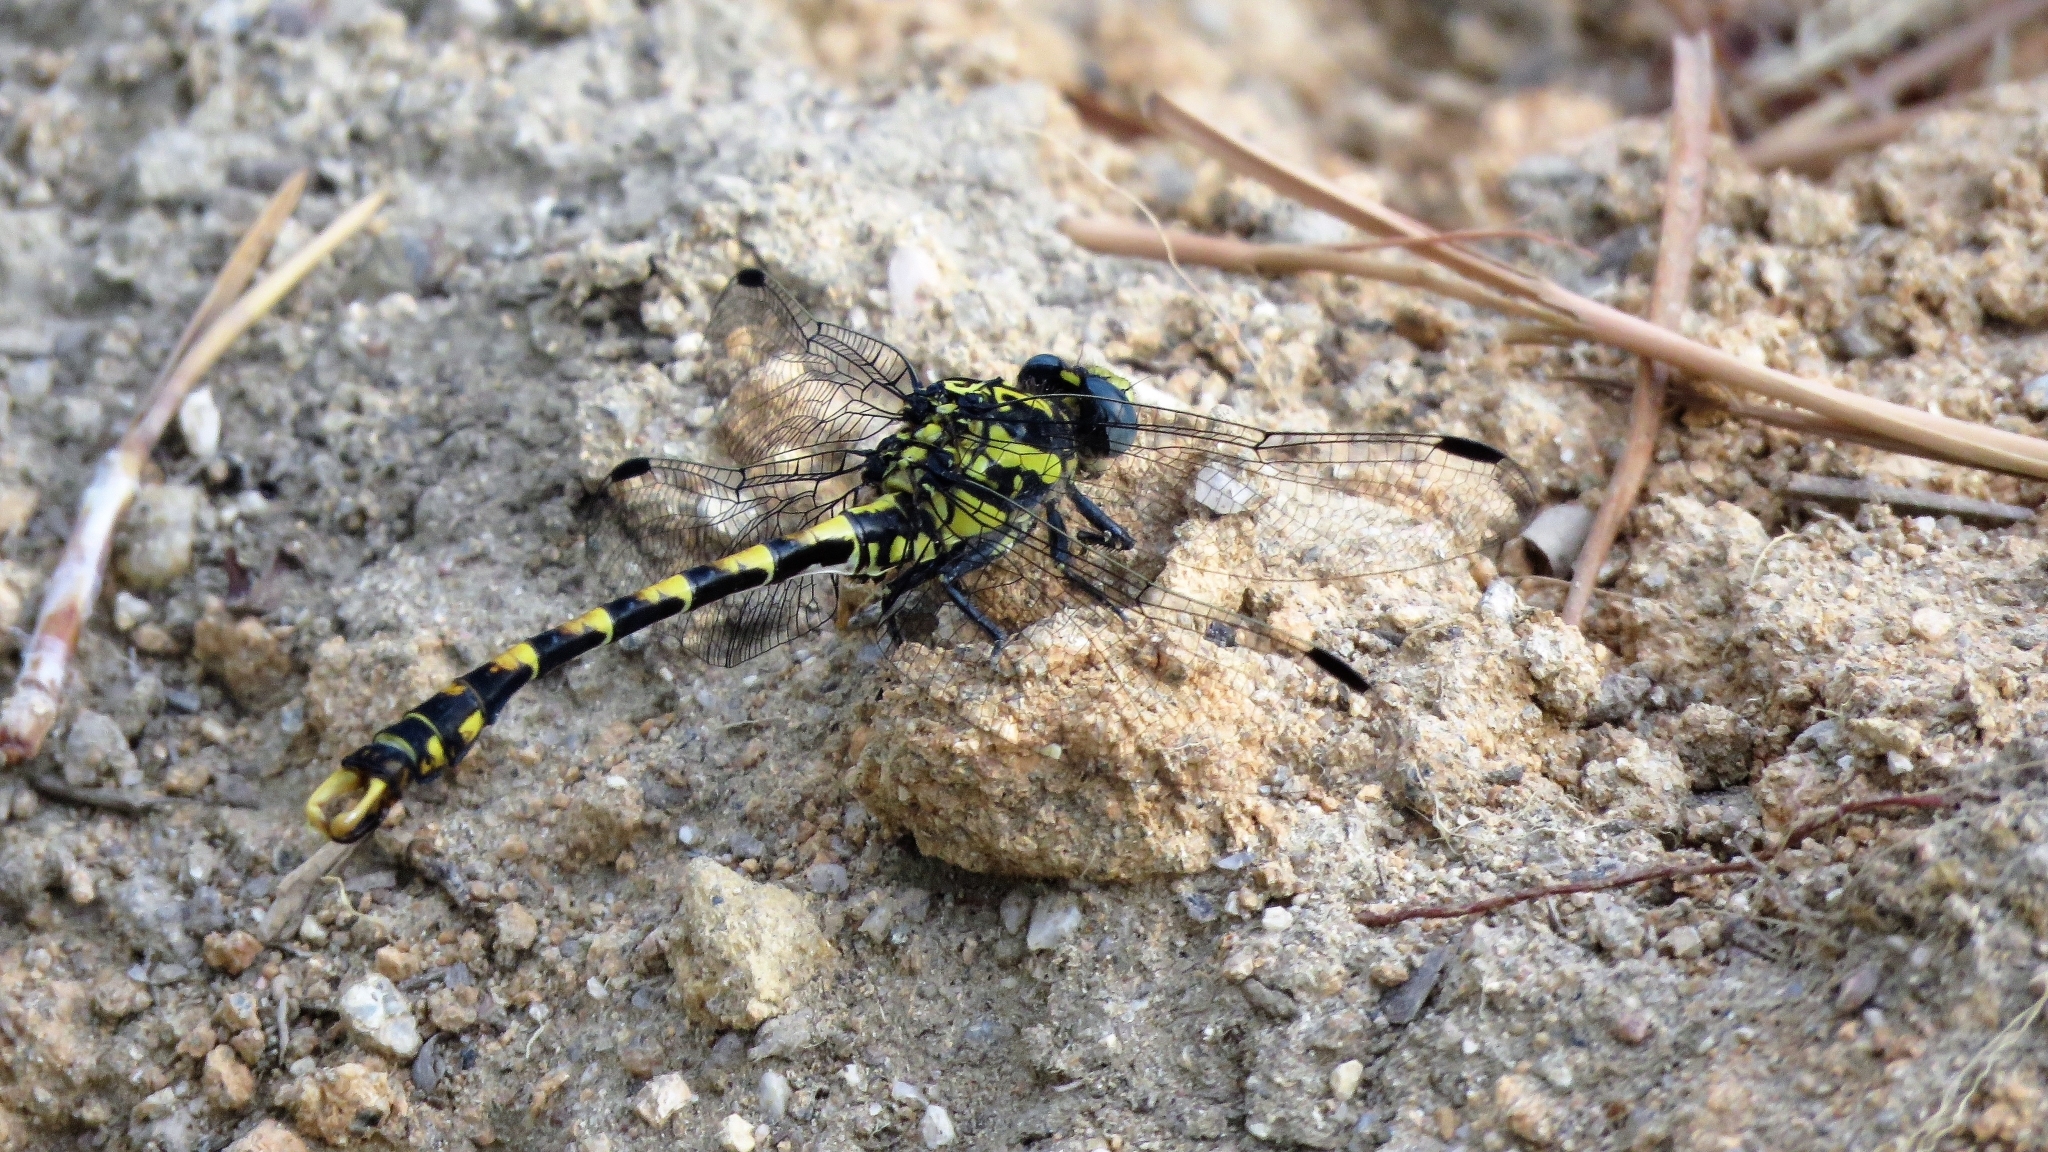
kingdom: Animalia
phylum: Arthropoda
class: Insecta
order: Odonata
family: Gomphidae
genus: Onychogomphus
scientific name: Onychogomphus uncatus
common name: Large pincertail
